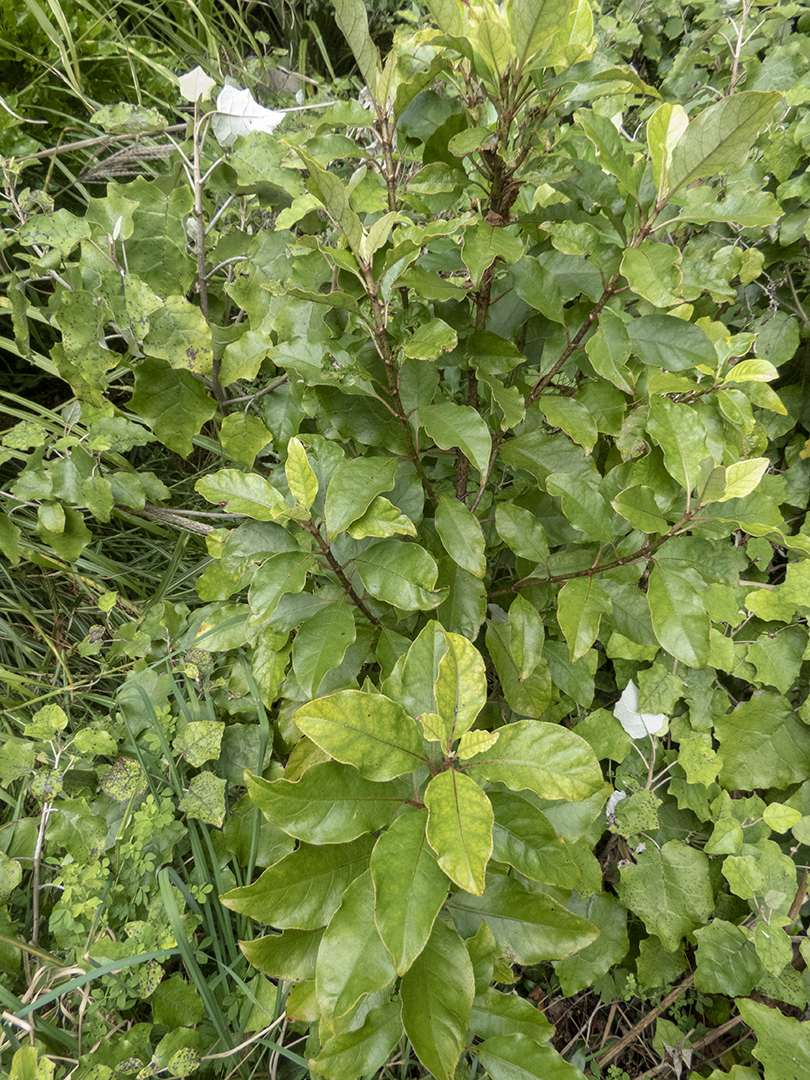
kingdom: Plantae
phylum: Tracheophyta
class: Magnoliopsida
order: Gentianales
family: Rubiaceae
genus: Coprosma
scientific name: Coprosma autumnalis
